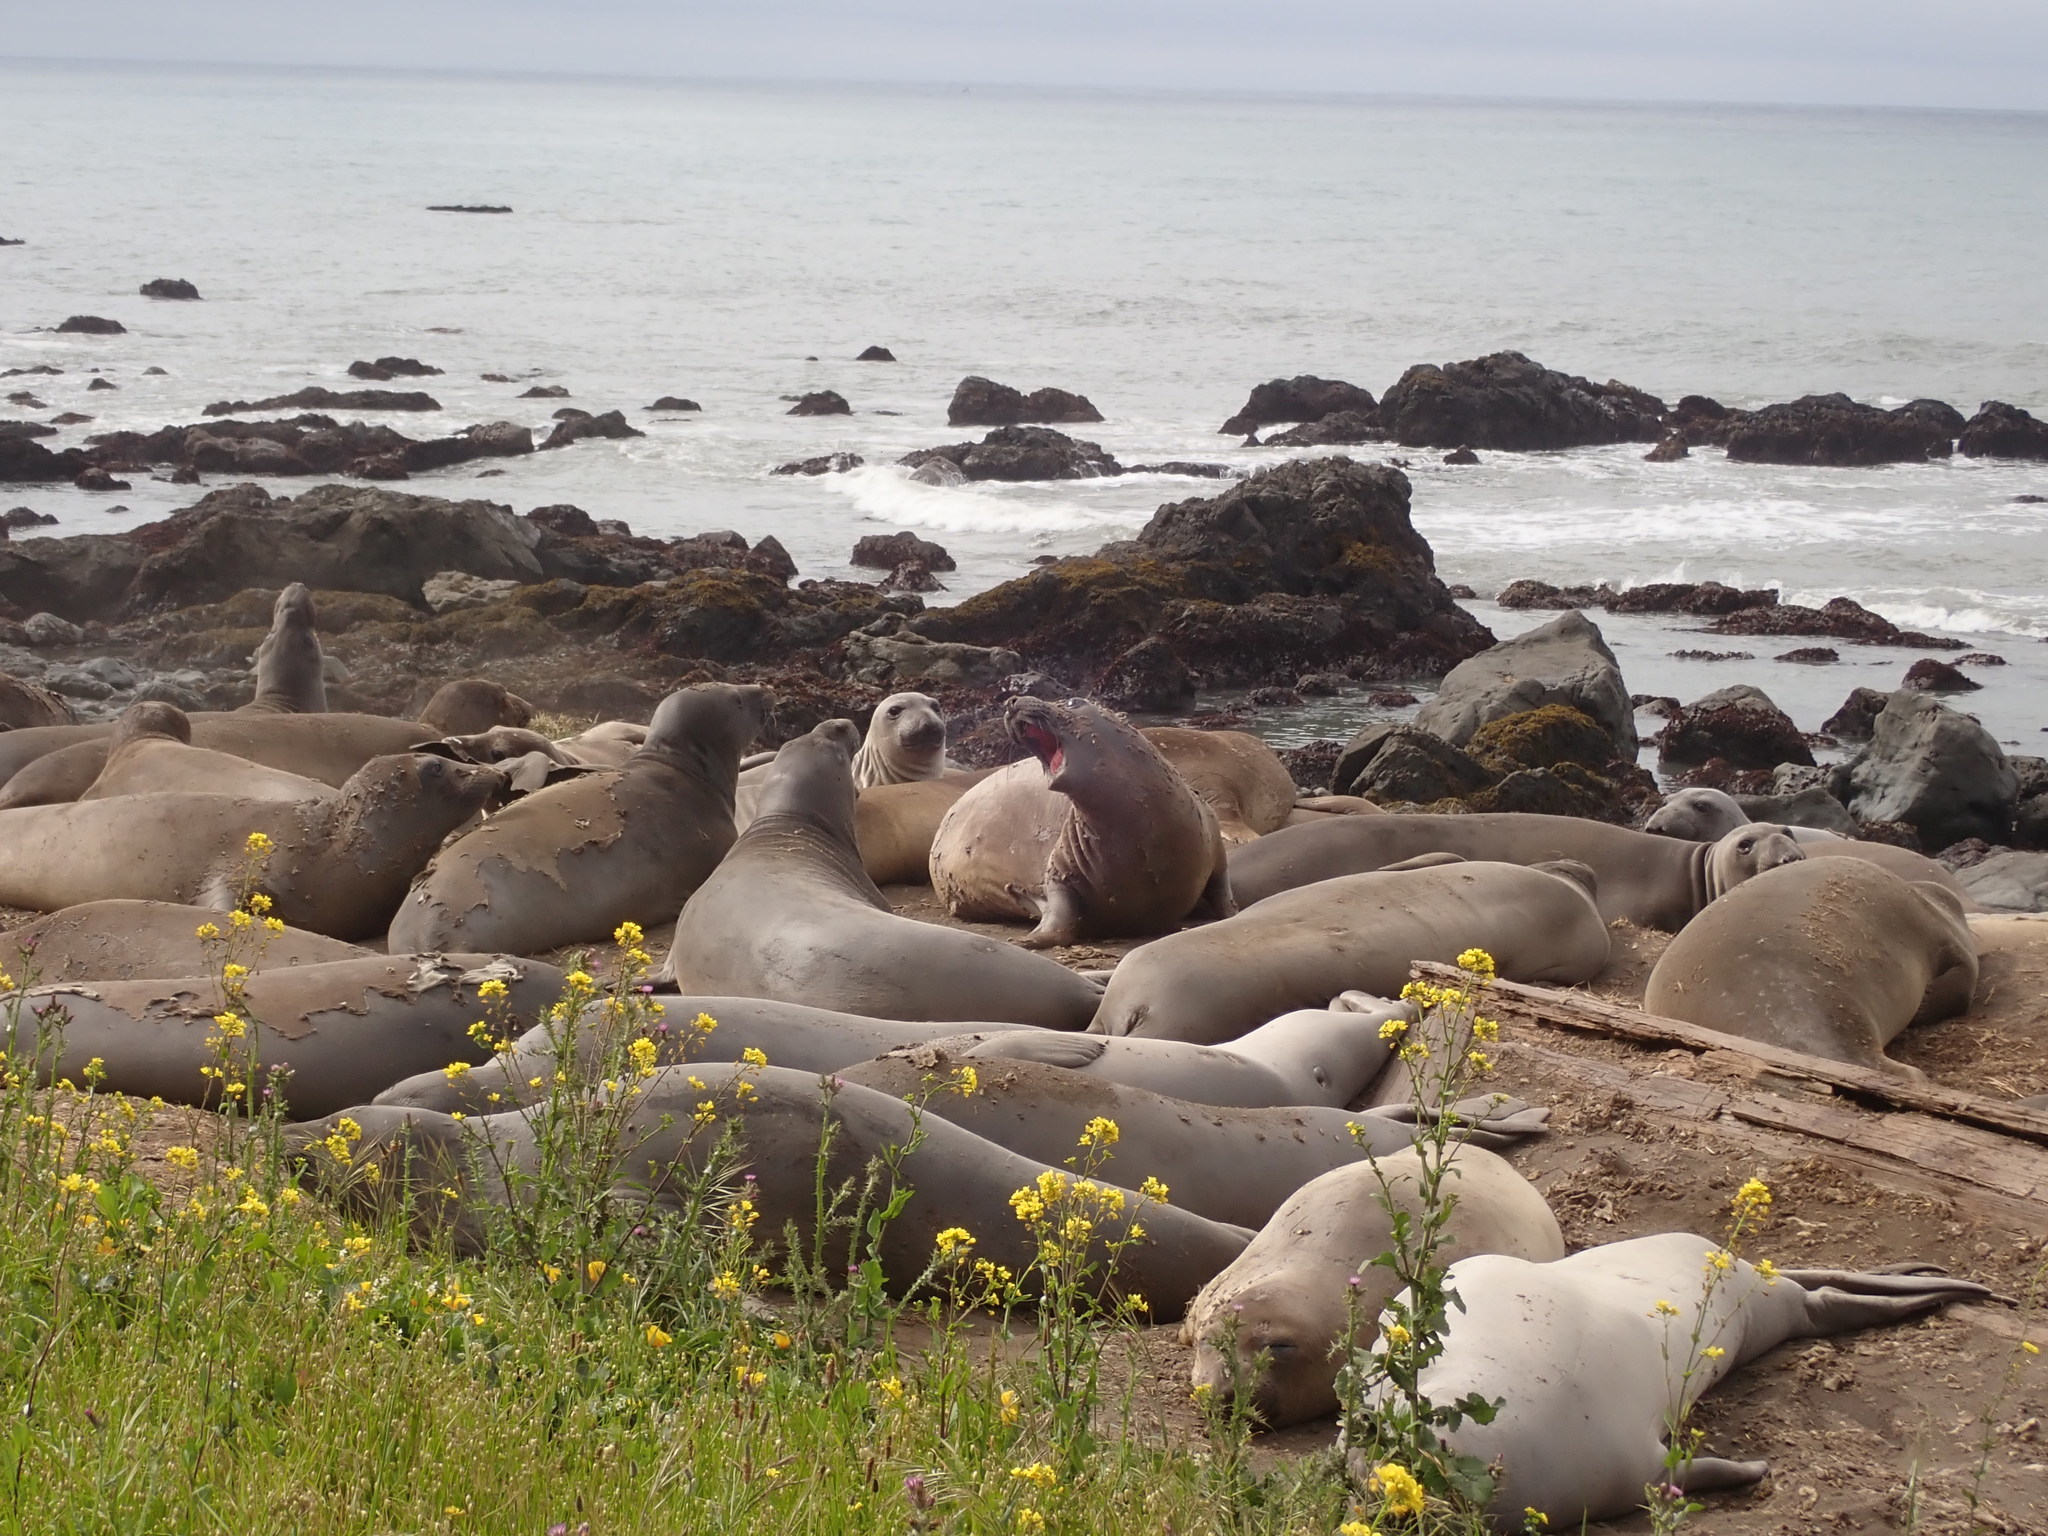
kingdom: Animalia
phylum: Chordata
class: Mammalia
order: Carnivora
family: Phocidae
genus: Mirounga
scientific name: Mirounga angustirostris
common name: Northern elephant seal
